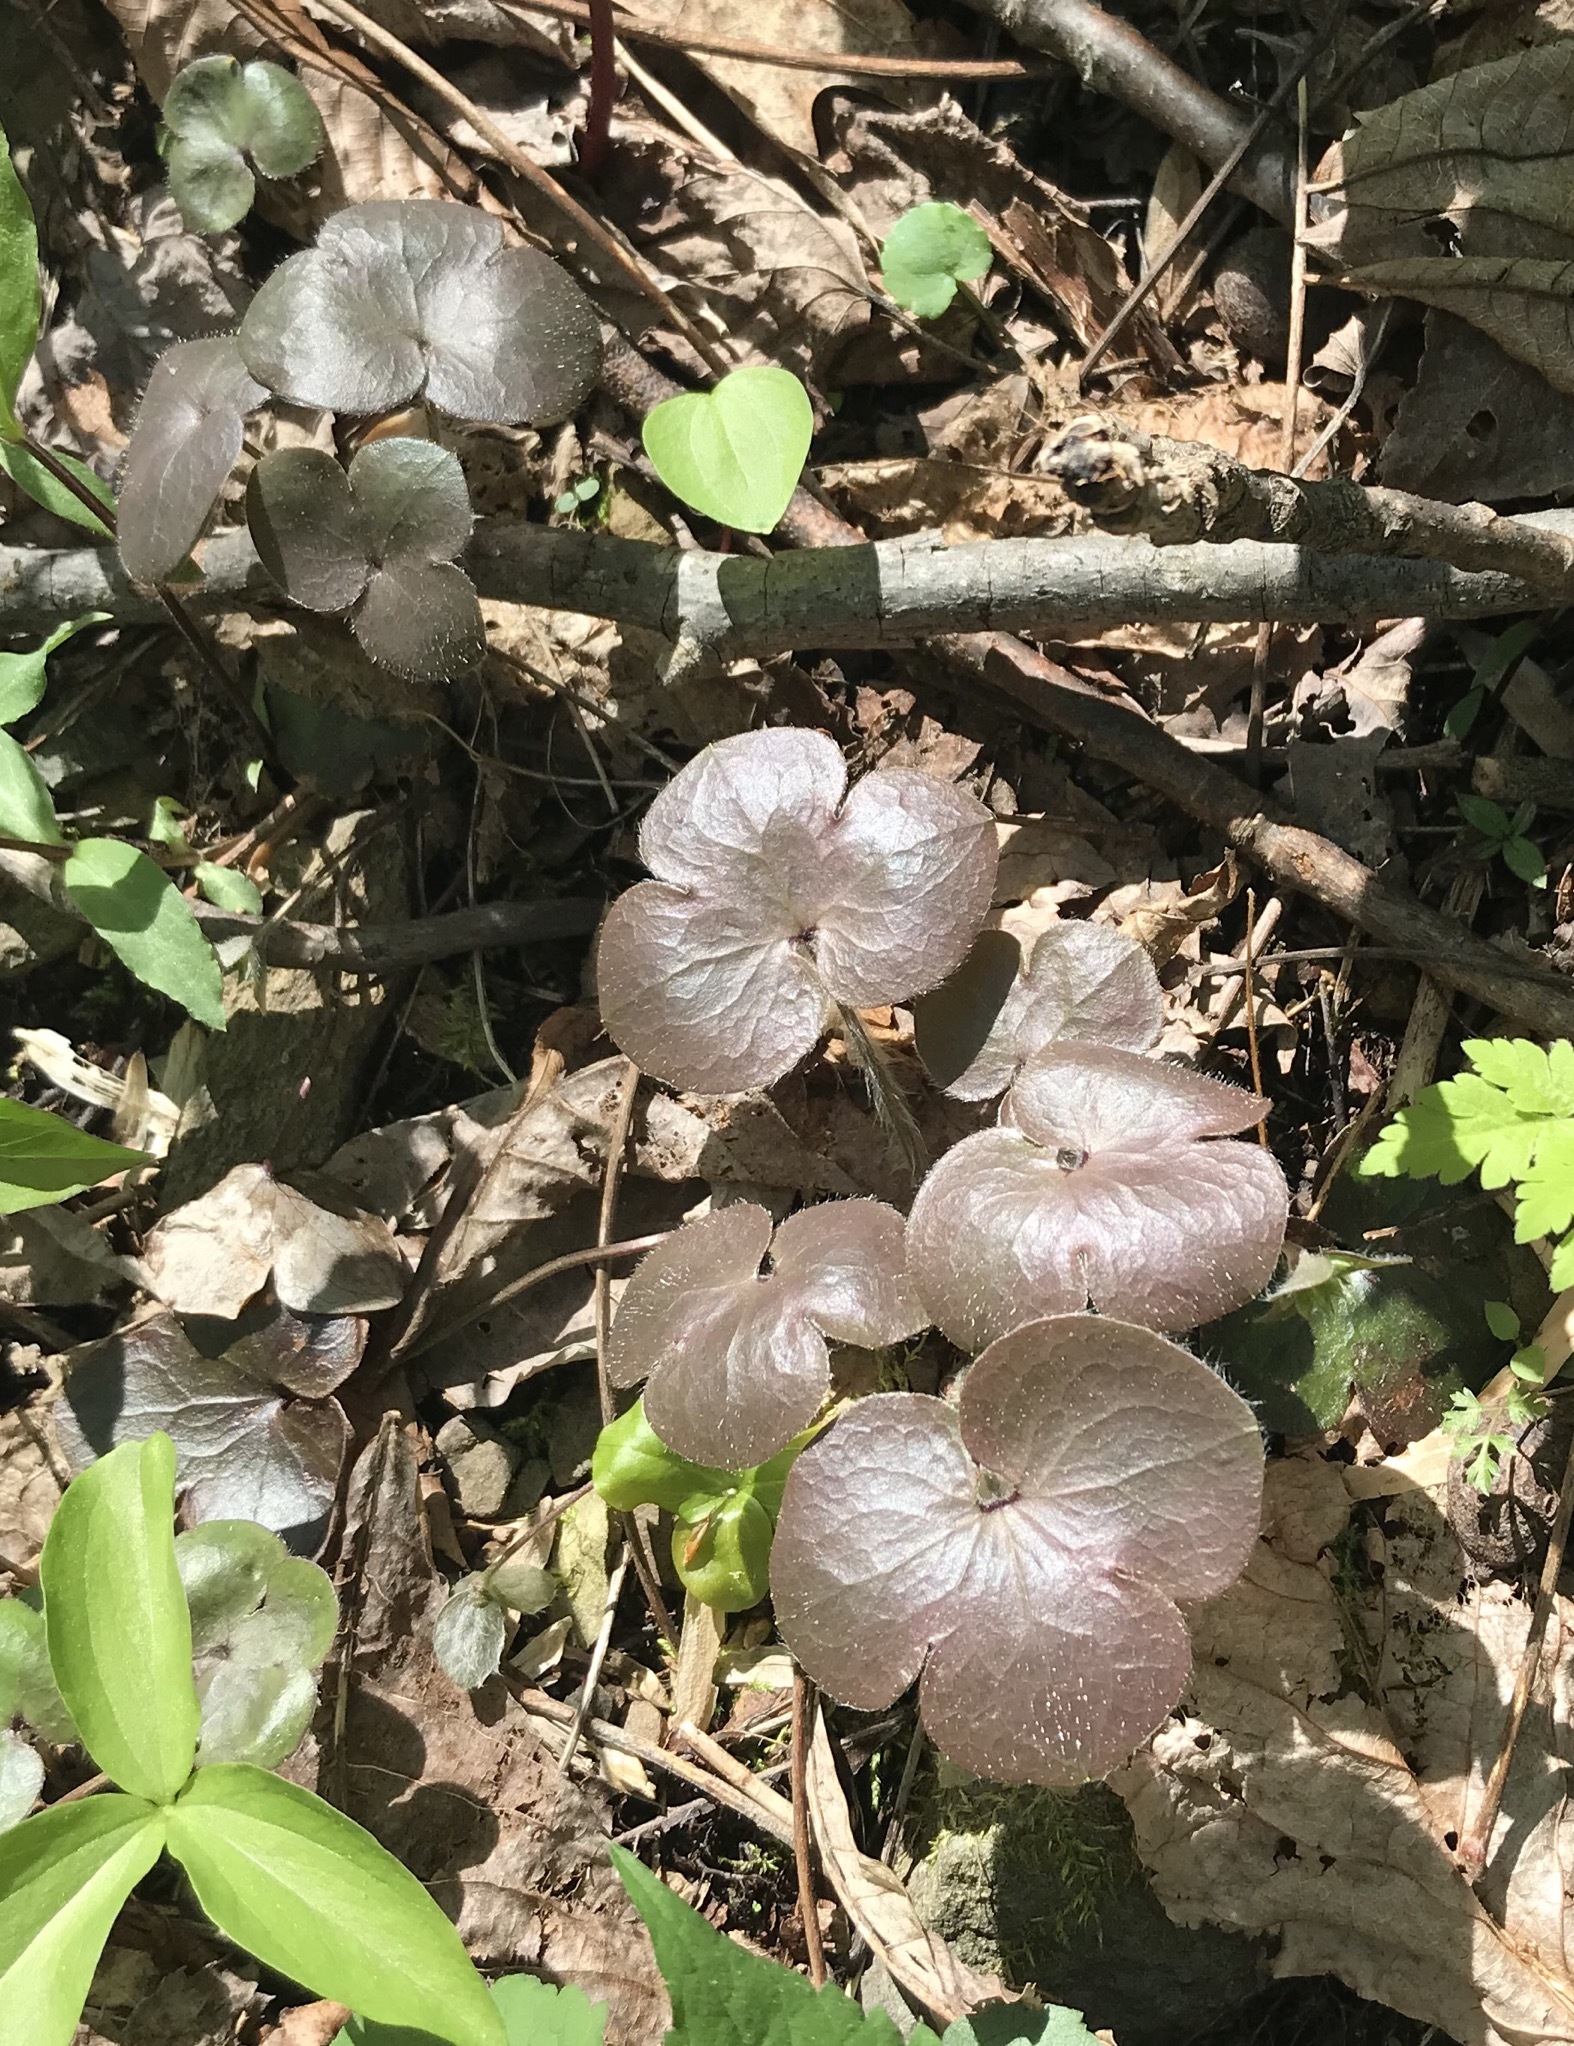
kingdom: Plantae
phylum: Tracheophyta
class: Magnoliopsida
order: Ranunculales
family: Ranunculaceae
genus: Hepatica
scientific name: Hepatica americana
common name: American hepatica
